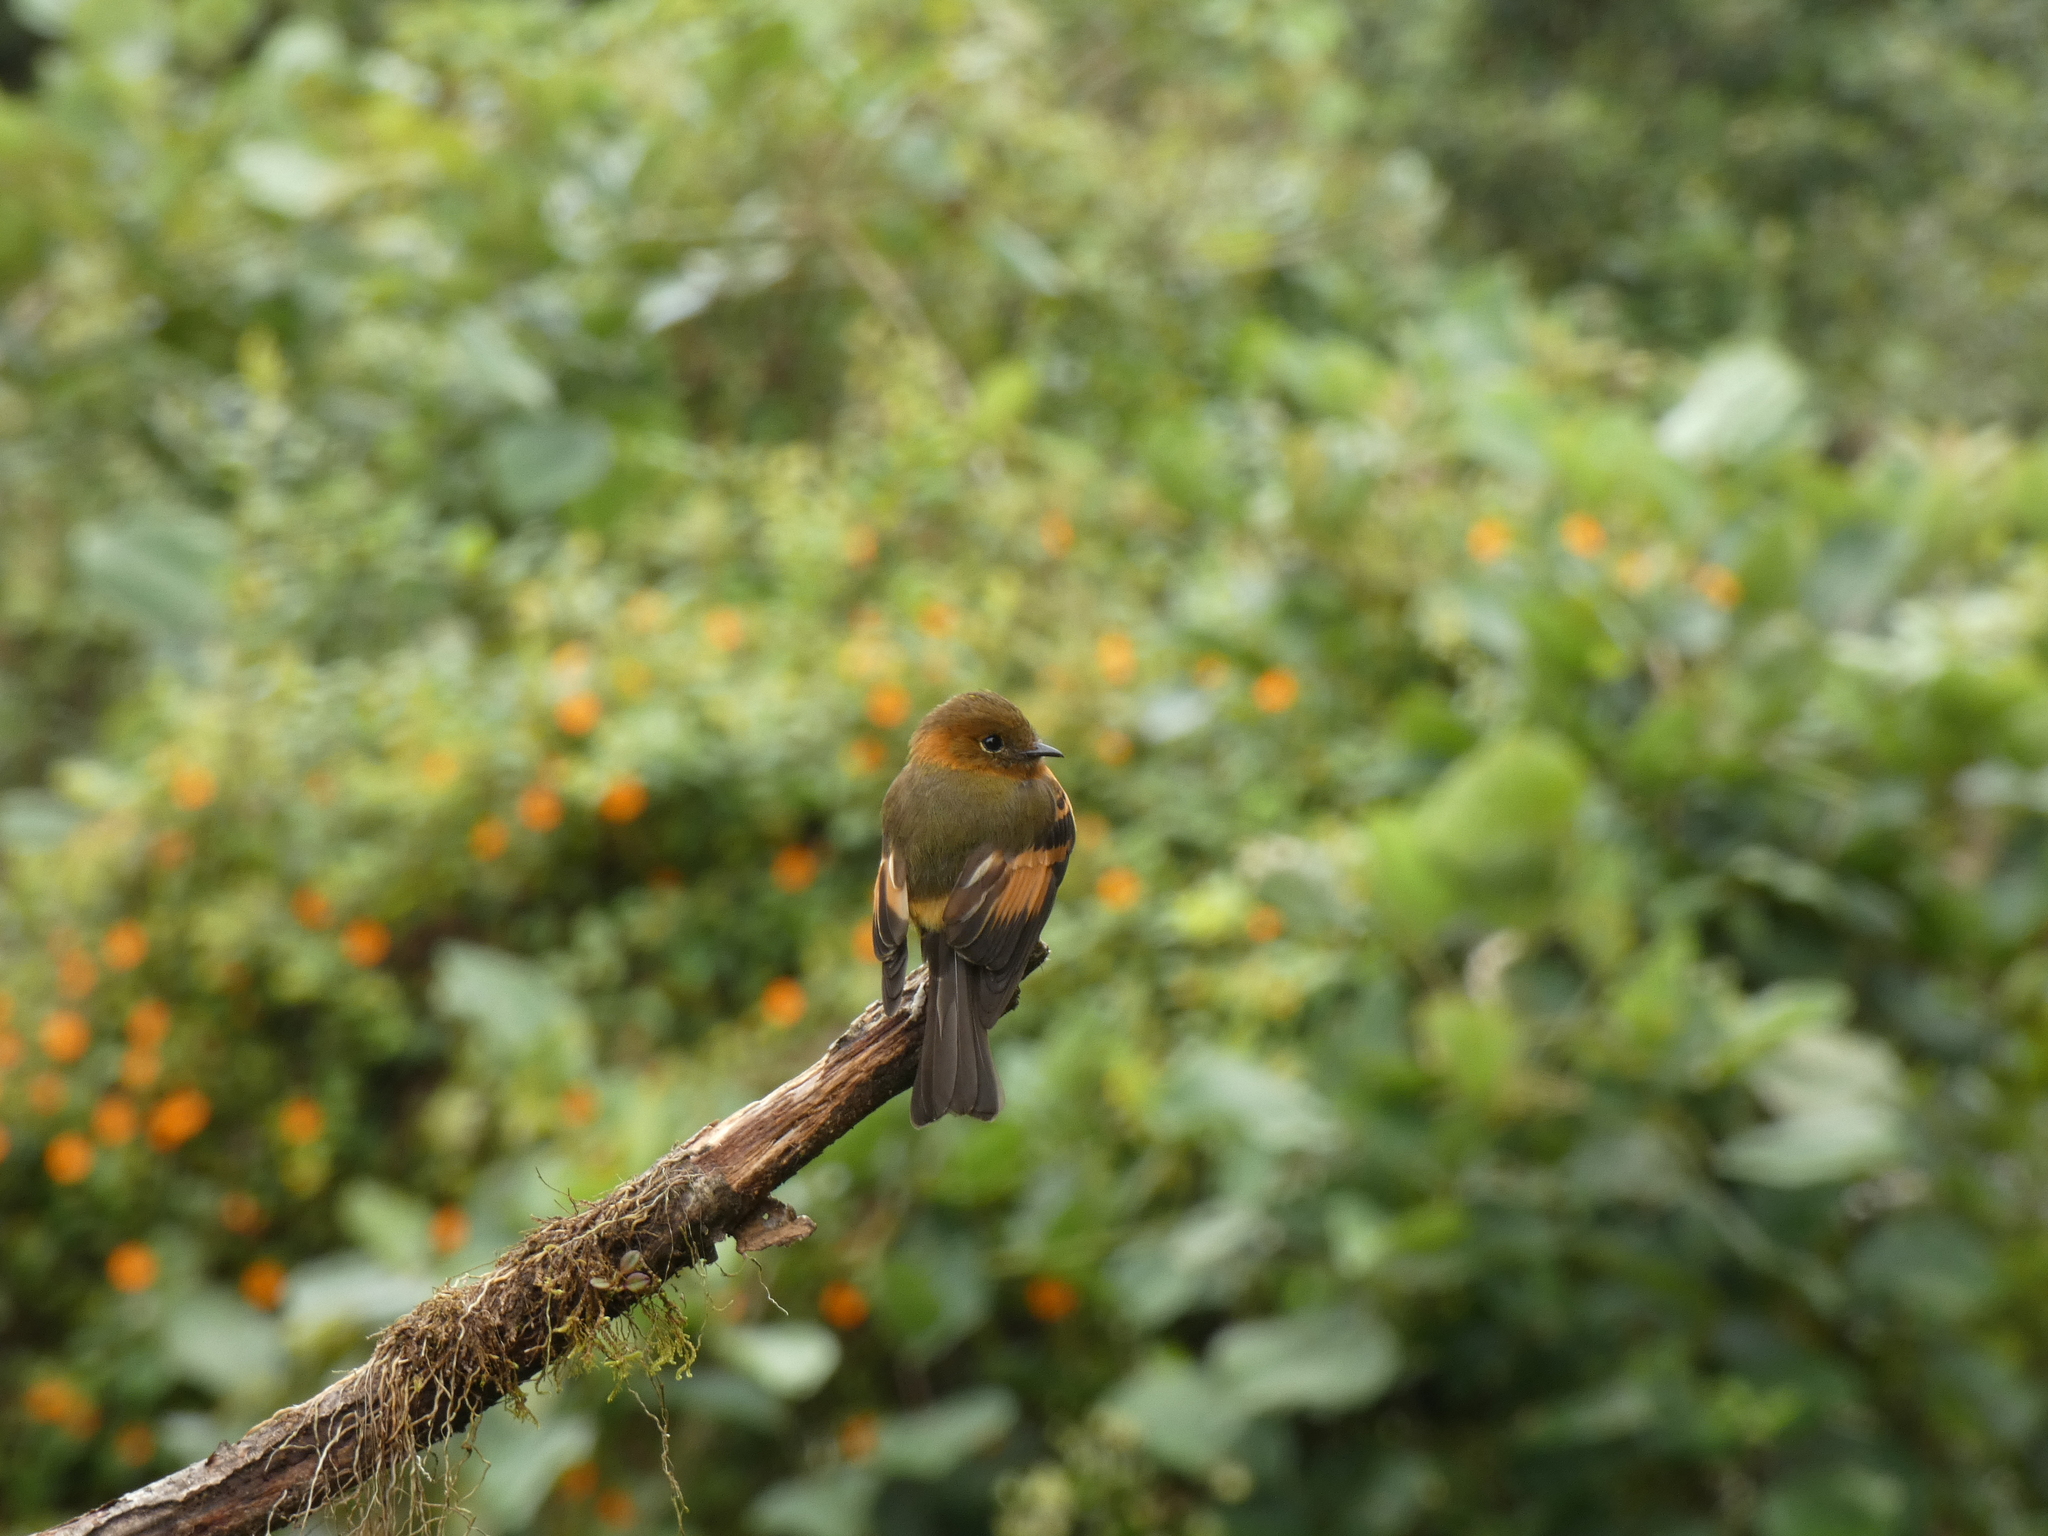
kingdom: Animalia
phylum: Chordata
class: Aves
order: Passeriformes
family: Tyrannidae
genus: Pyrrhomyias
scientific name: Pyrrhomyias cinnamomeus
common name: Cinnamon flycatcher
